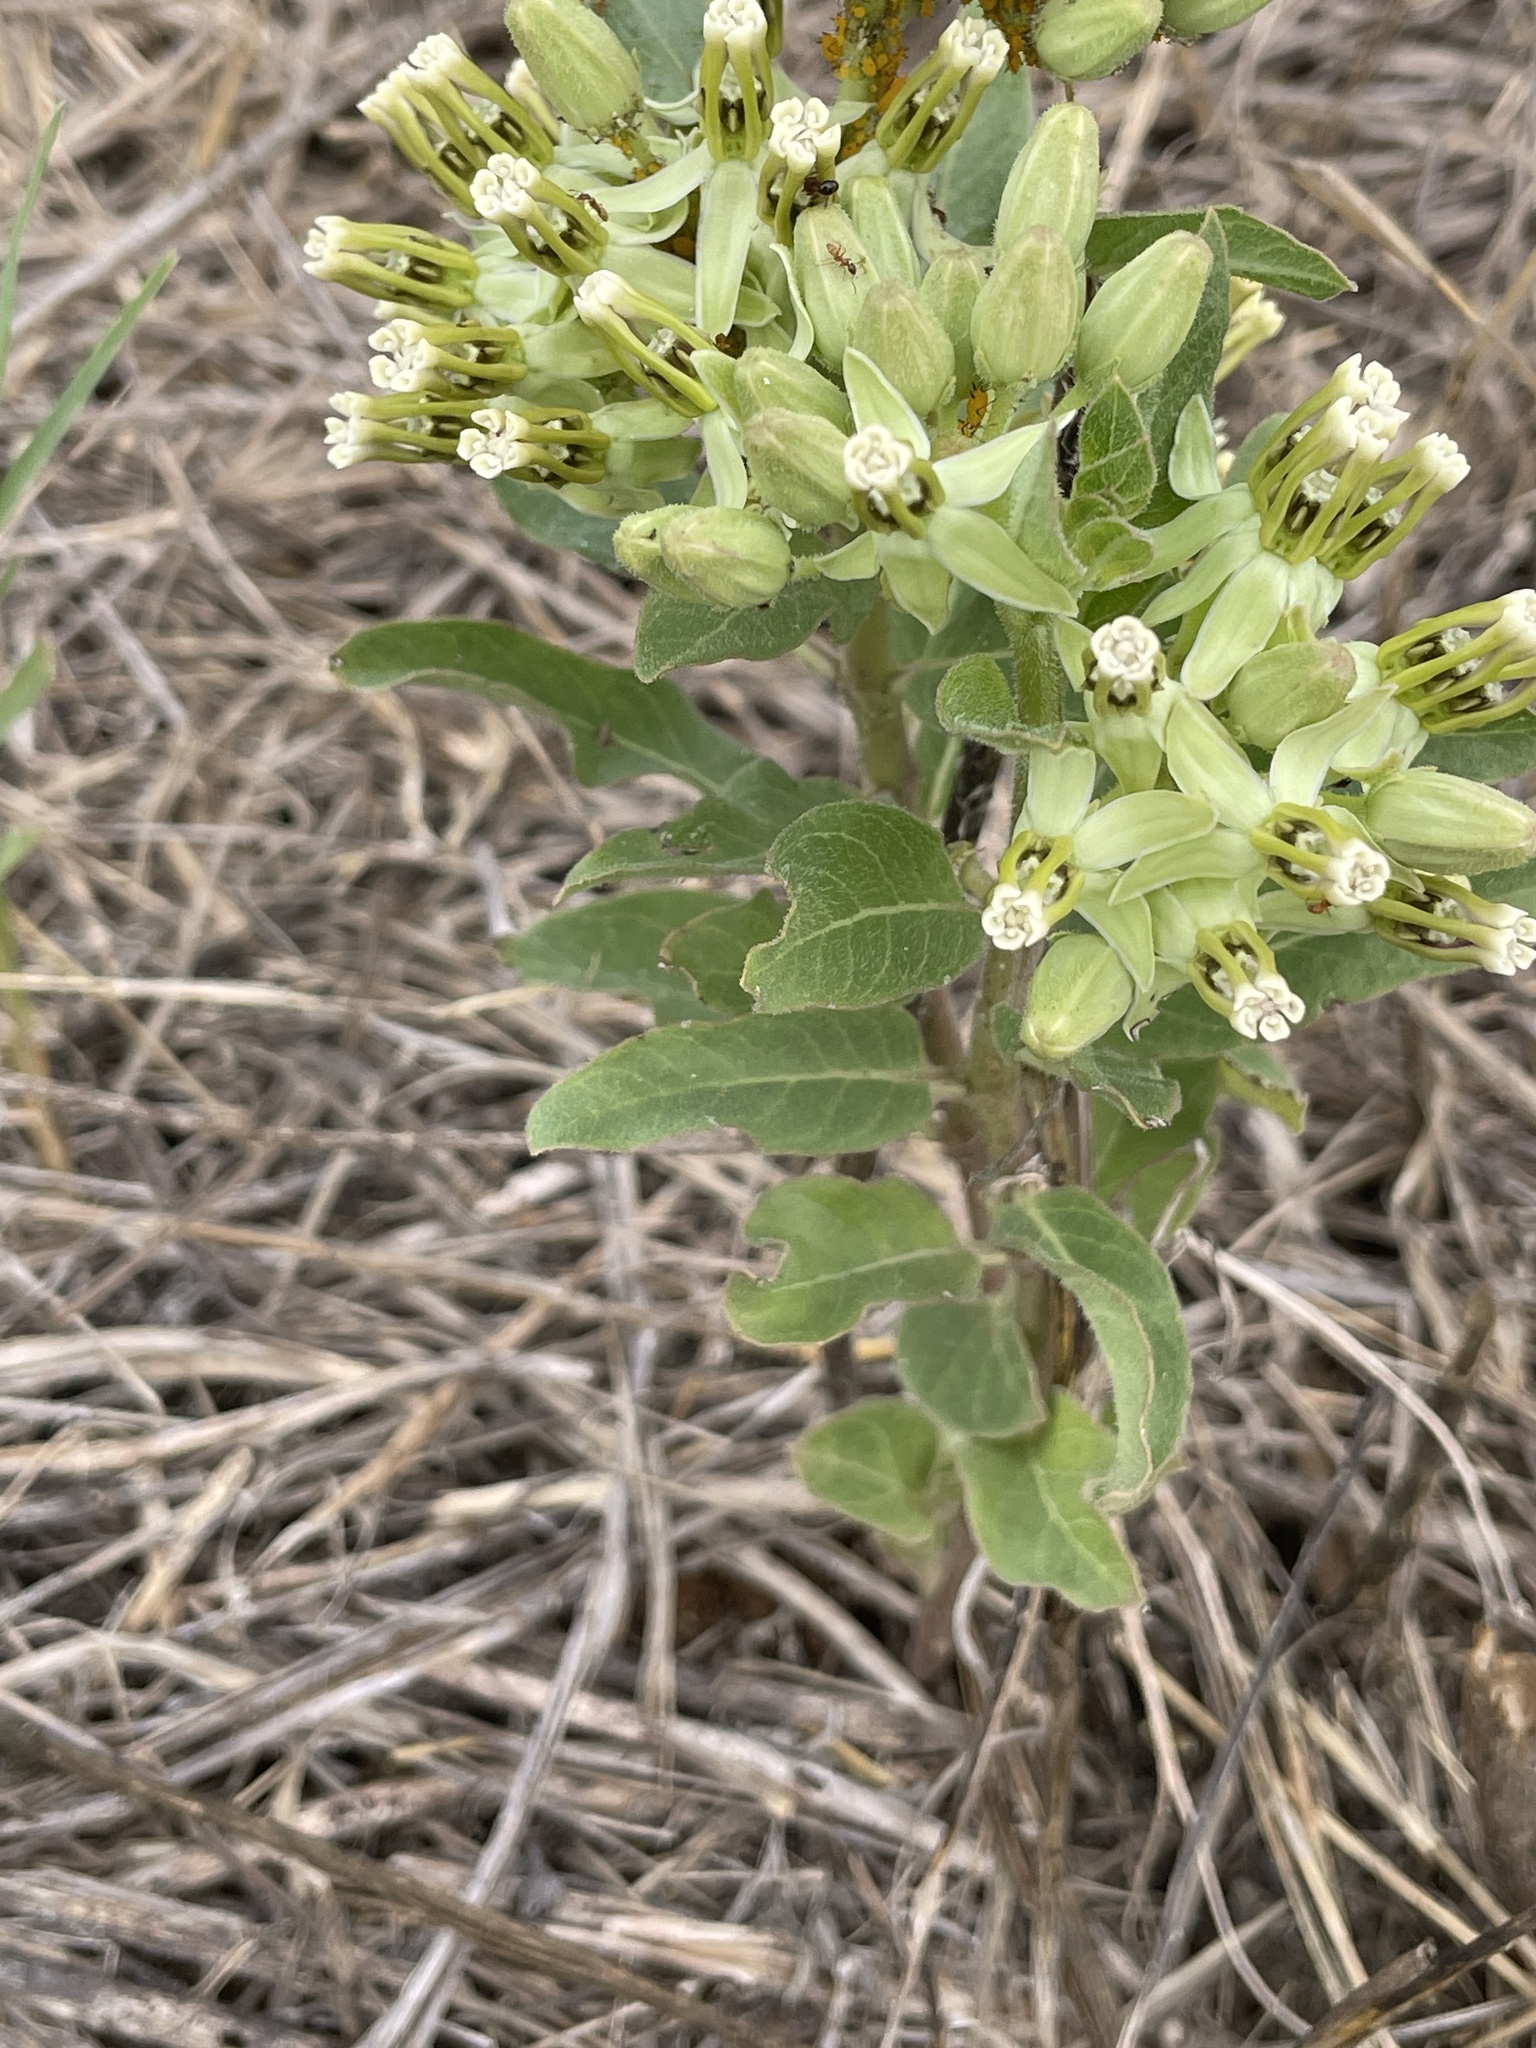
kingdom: Plantae
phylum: Tracheophyta
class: Magnoliopsida
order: Gentianales
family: Apocynaceae
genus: Asclepias
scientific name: Asclepias oenotheroides
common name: Zizotes milkweed
